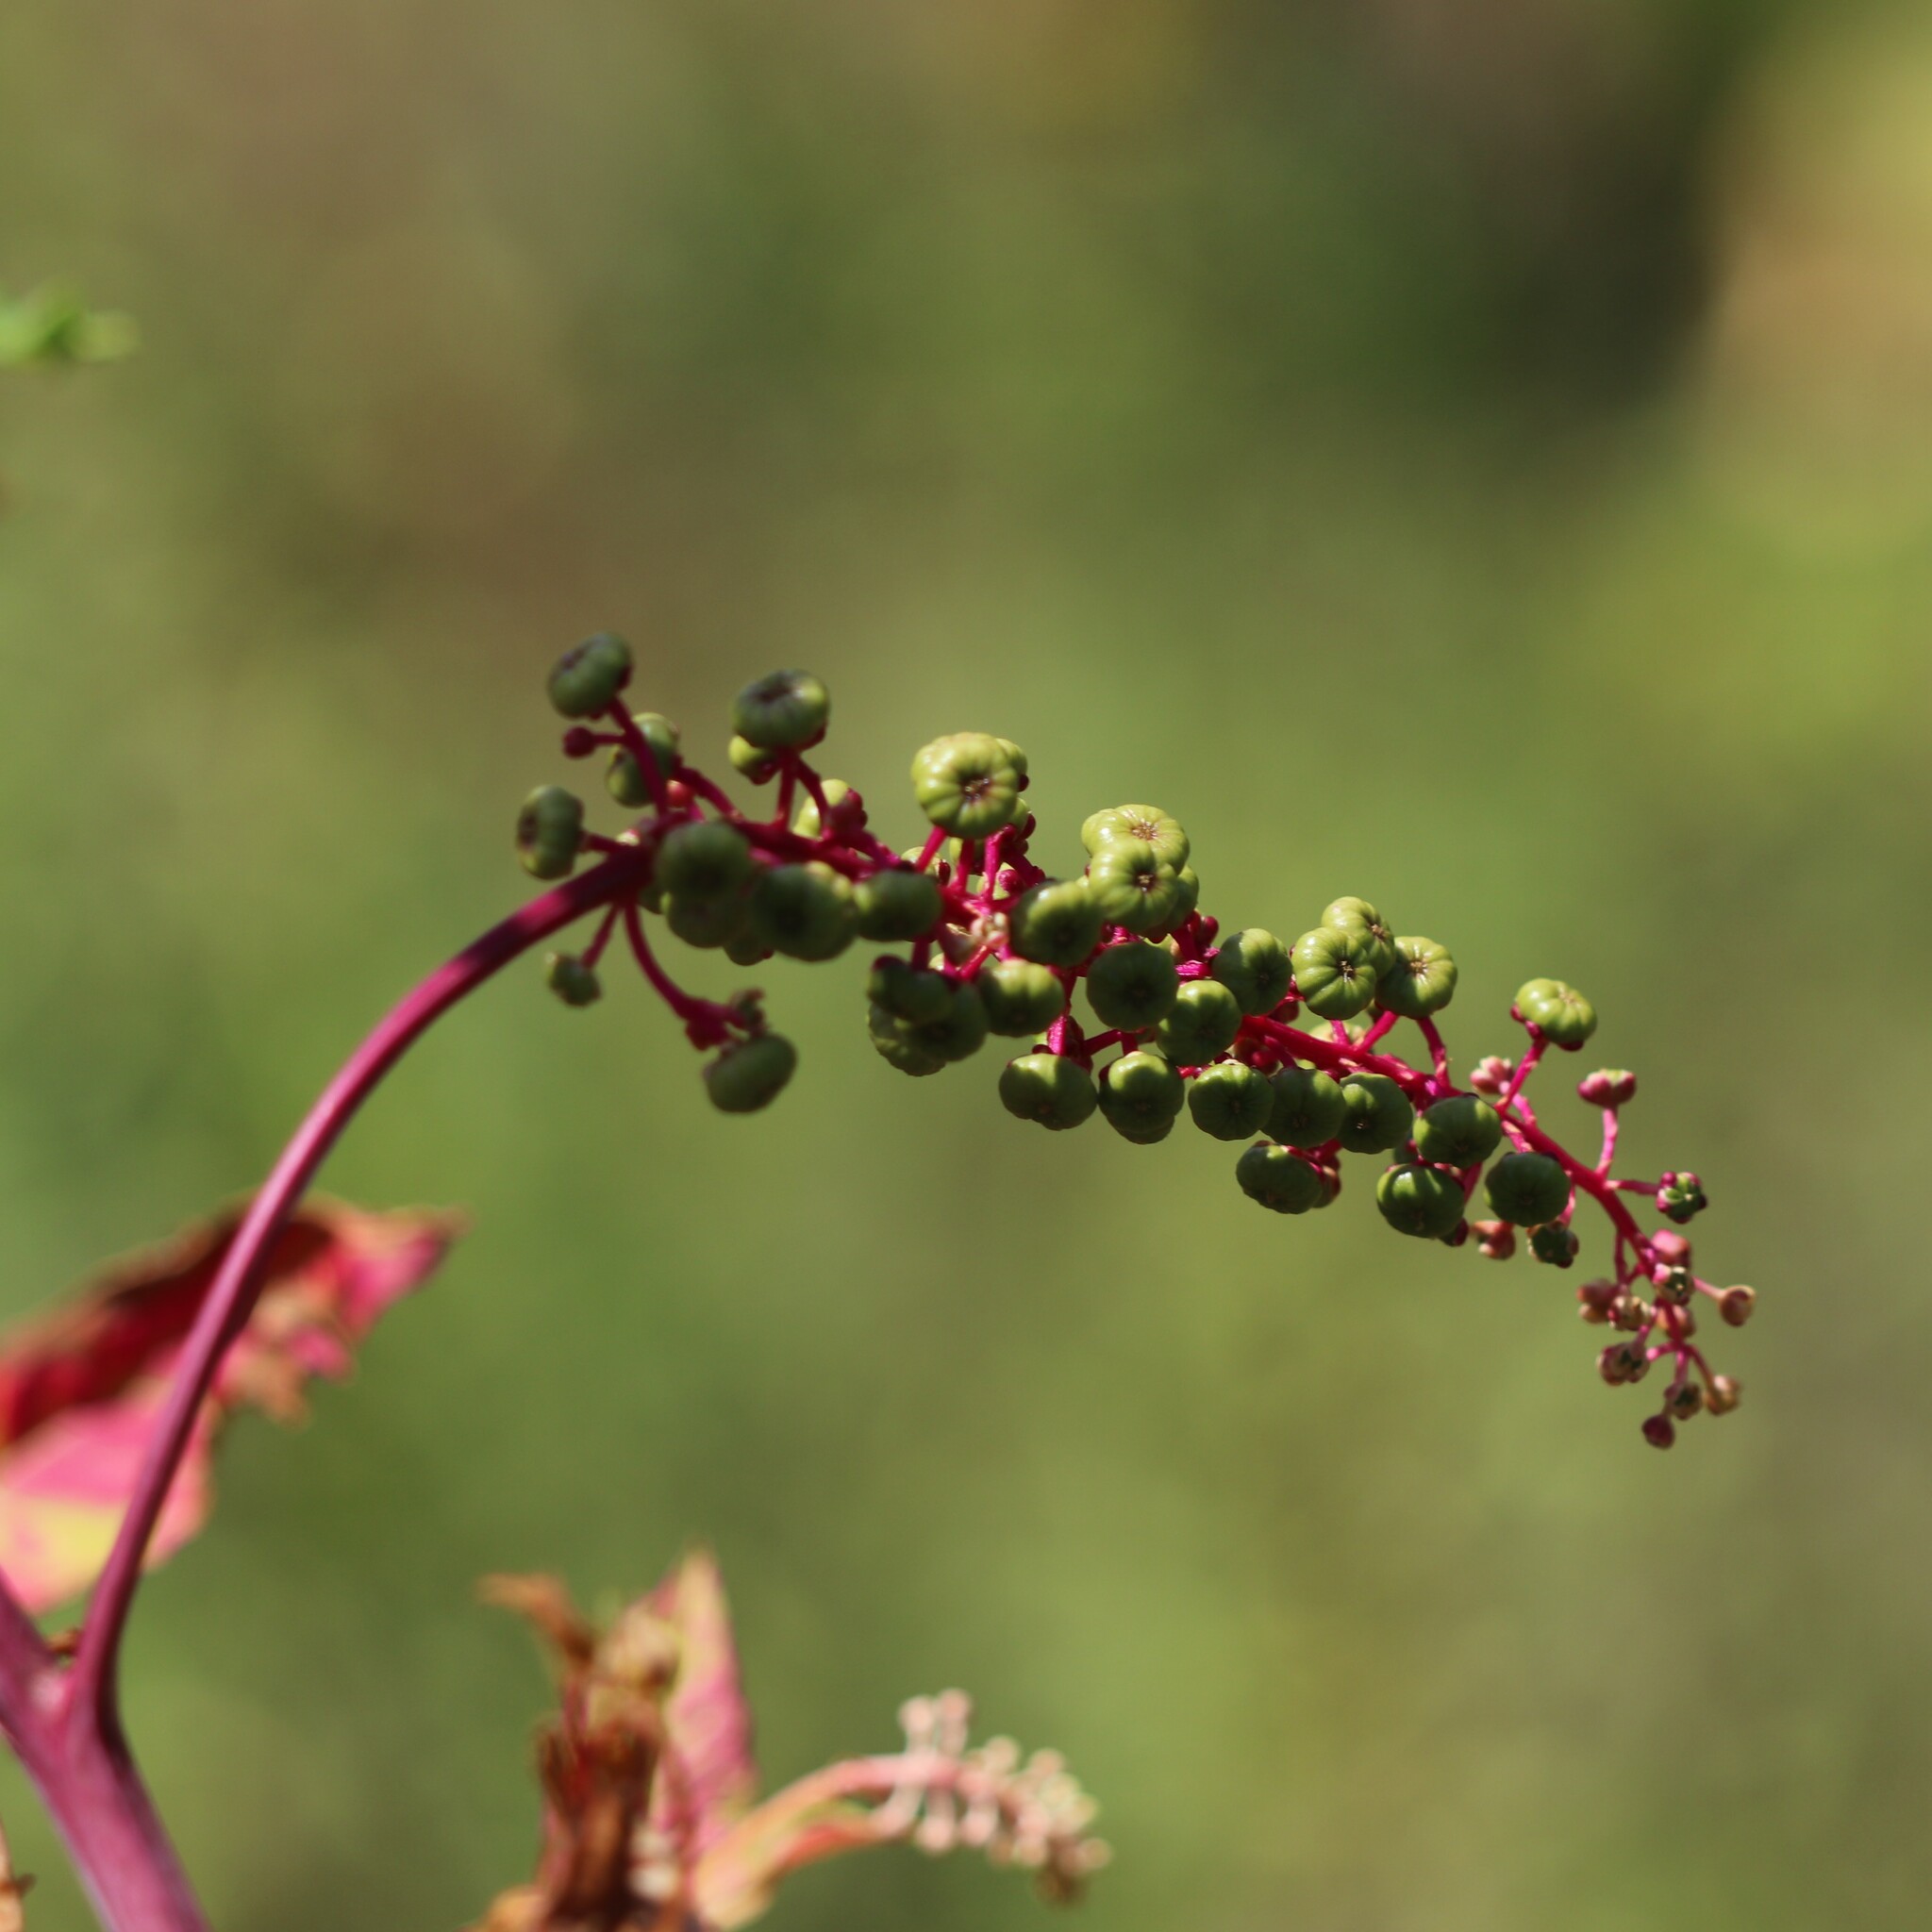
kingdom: Plantae
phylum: Tracheophyta
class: Magnoliopsida
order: Caryophyllales
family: Phytolaccaceae
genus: Phytolacca
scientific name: Phytolacca americana
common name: American pokeweed
